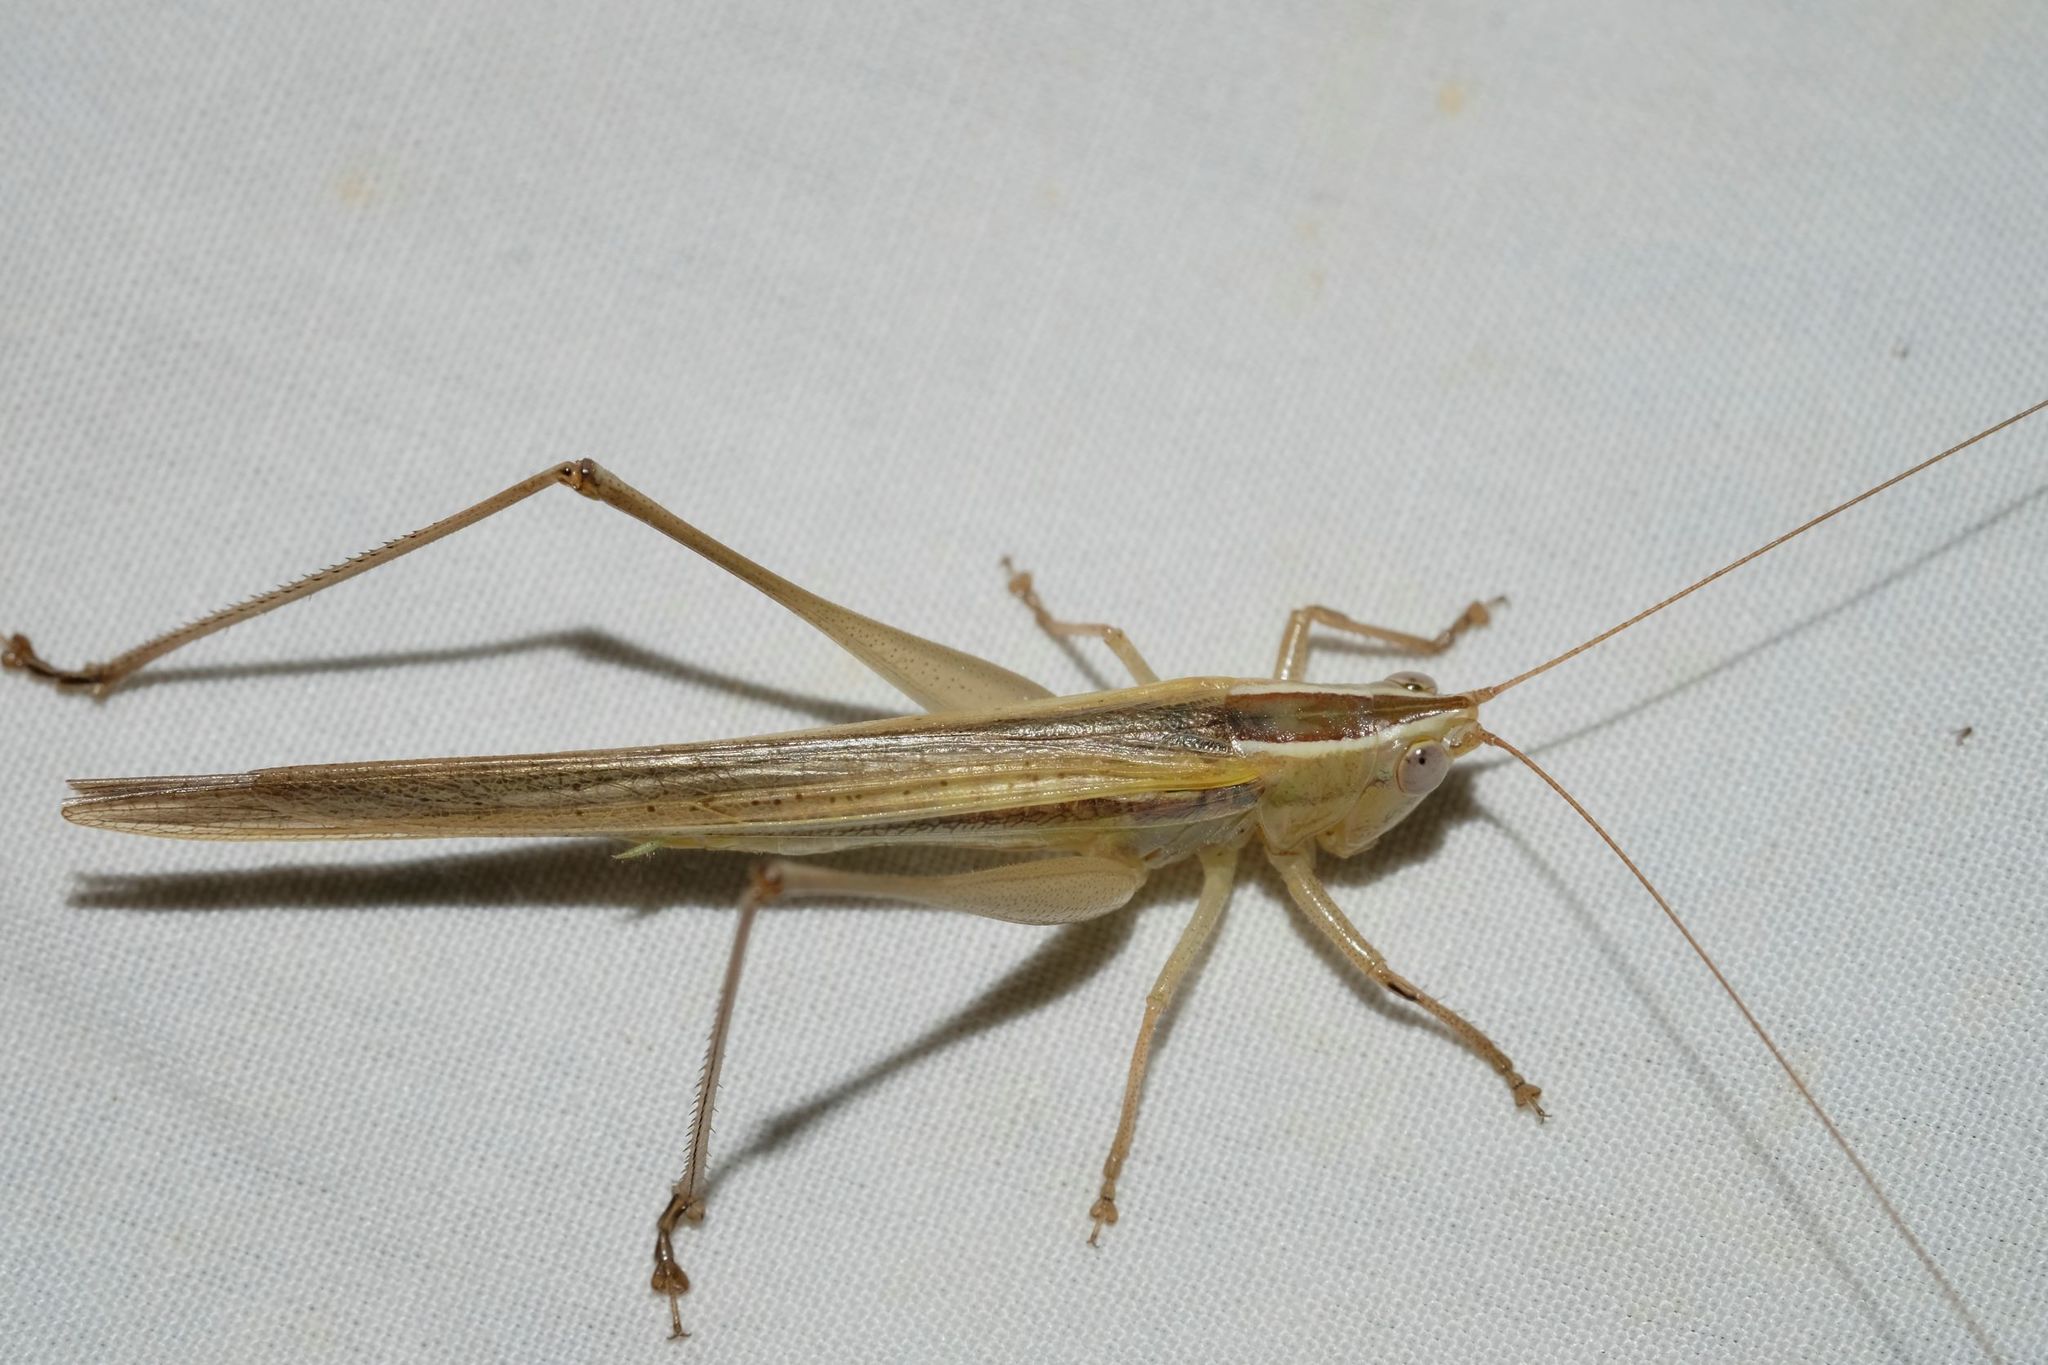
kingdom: Animalia
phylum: Arthropoda
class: Insecta
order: Orthoptera
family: Tettigoniidae
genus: Conocephalus
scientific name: Conocephalus upoluensis
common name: Upolu meadow katydid
